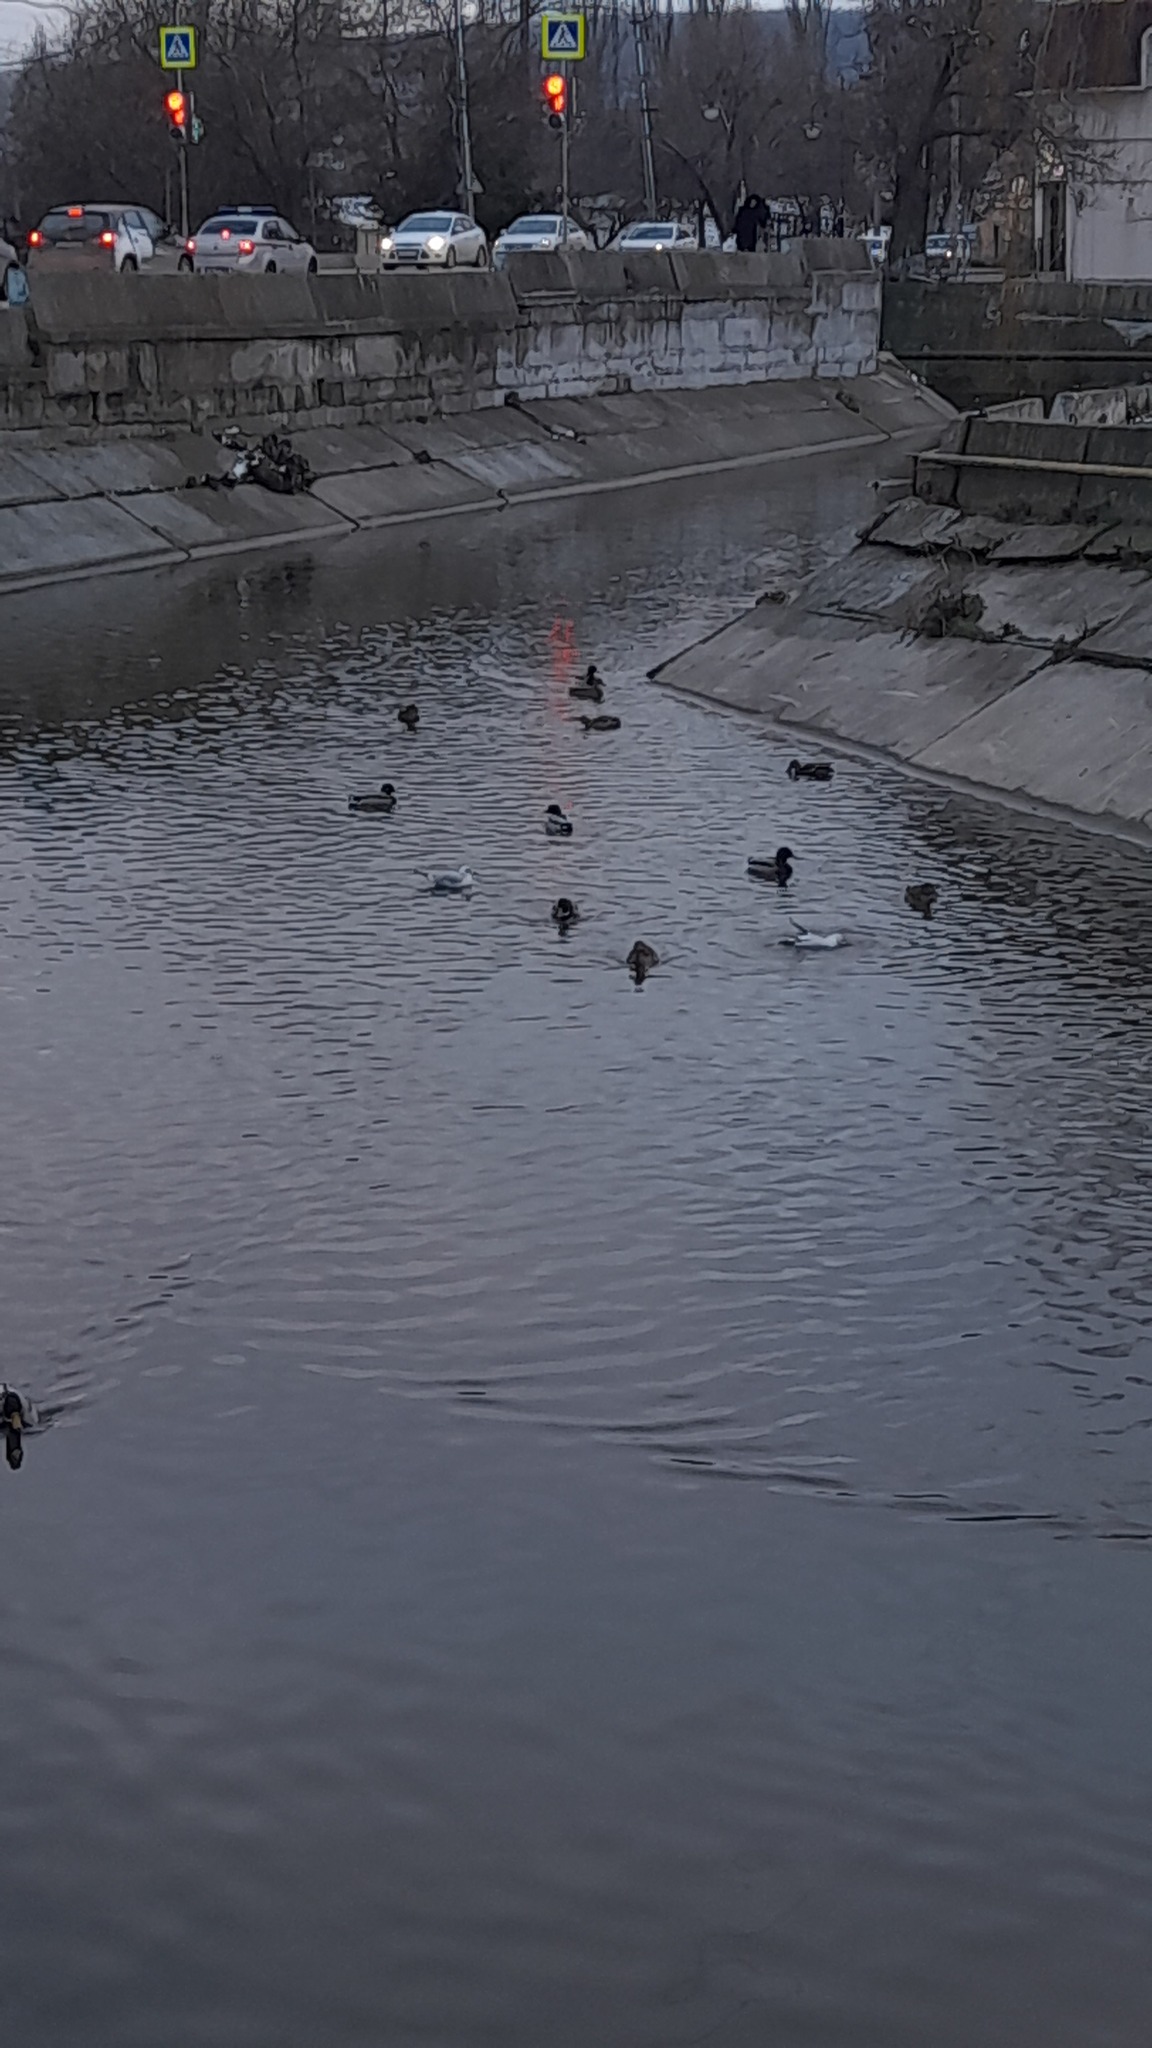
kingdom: Animalia
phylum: Chordata
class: Aves
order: Anseriformes
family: Anatidae
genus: Anas
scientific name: Anas platyrhynchos
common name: Mallard
